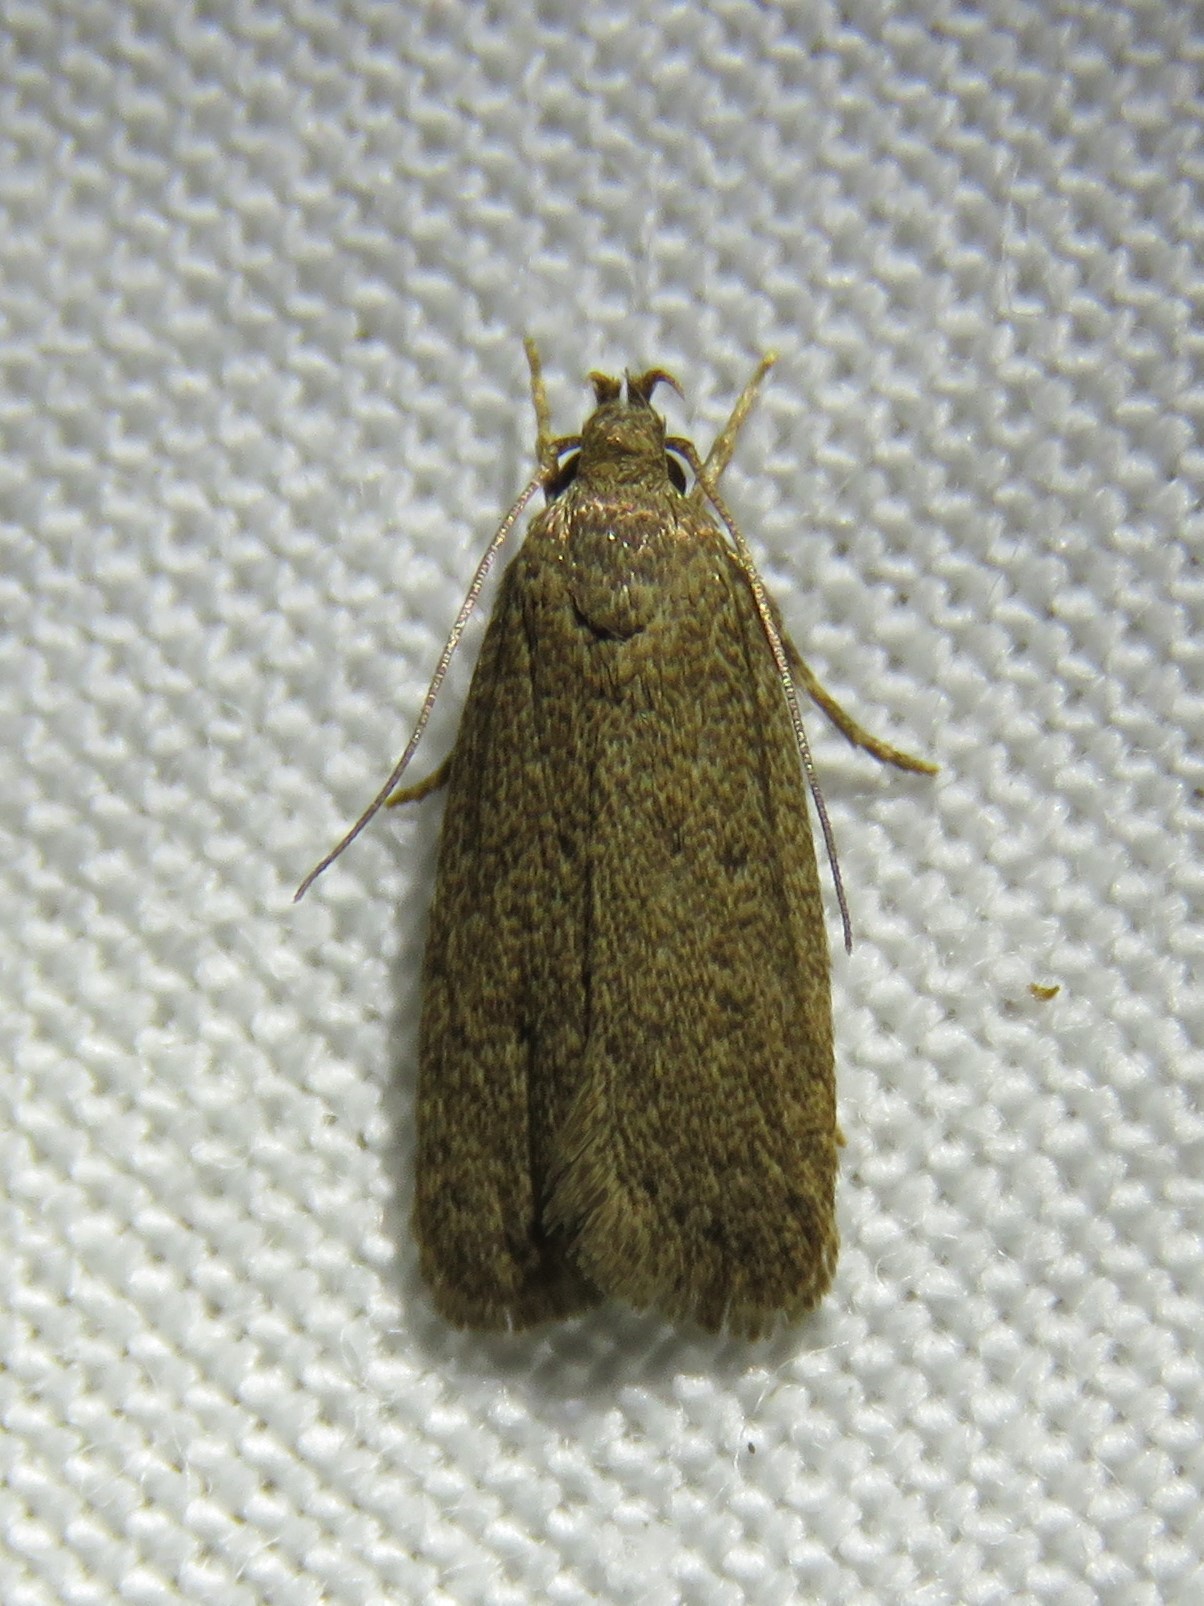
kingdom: Animalia
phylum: Arthropoda
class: Insecta
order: Lepidoptera
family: Autostichidae
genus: Autosticha
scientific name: Autosticha kyotensis
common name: Kyoto moth
